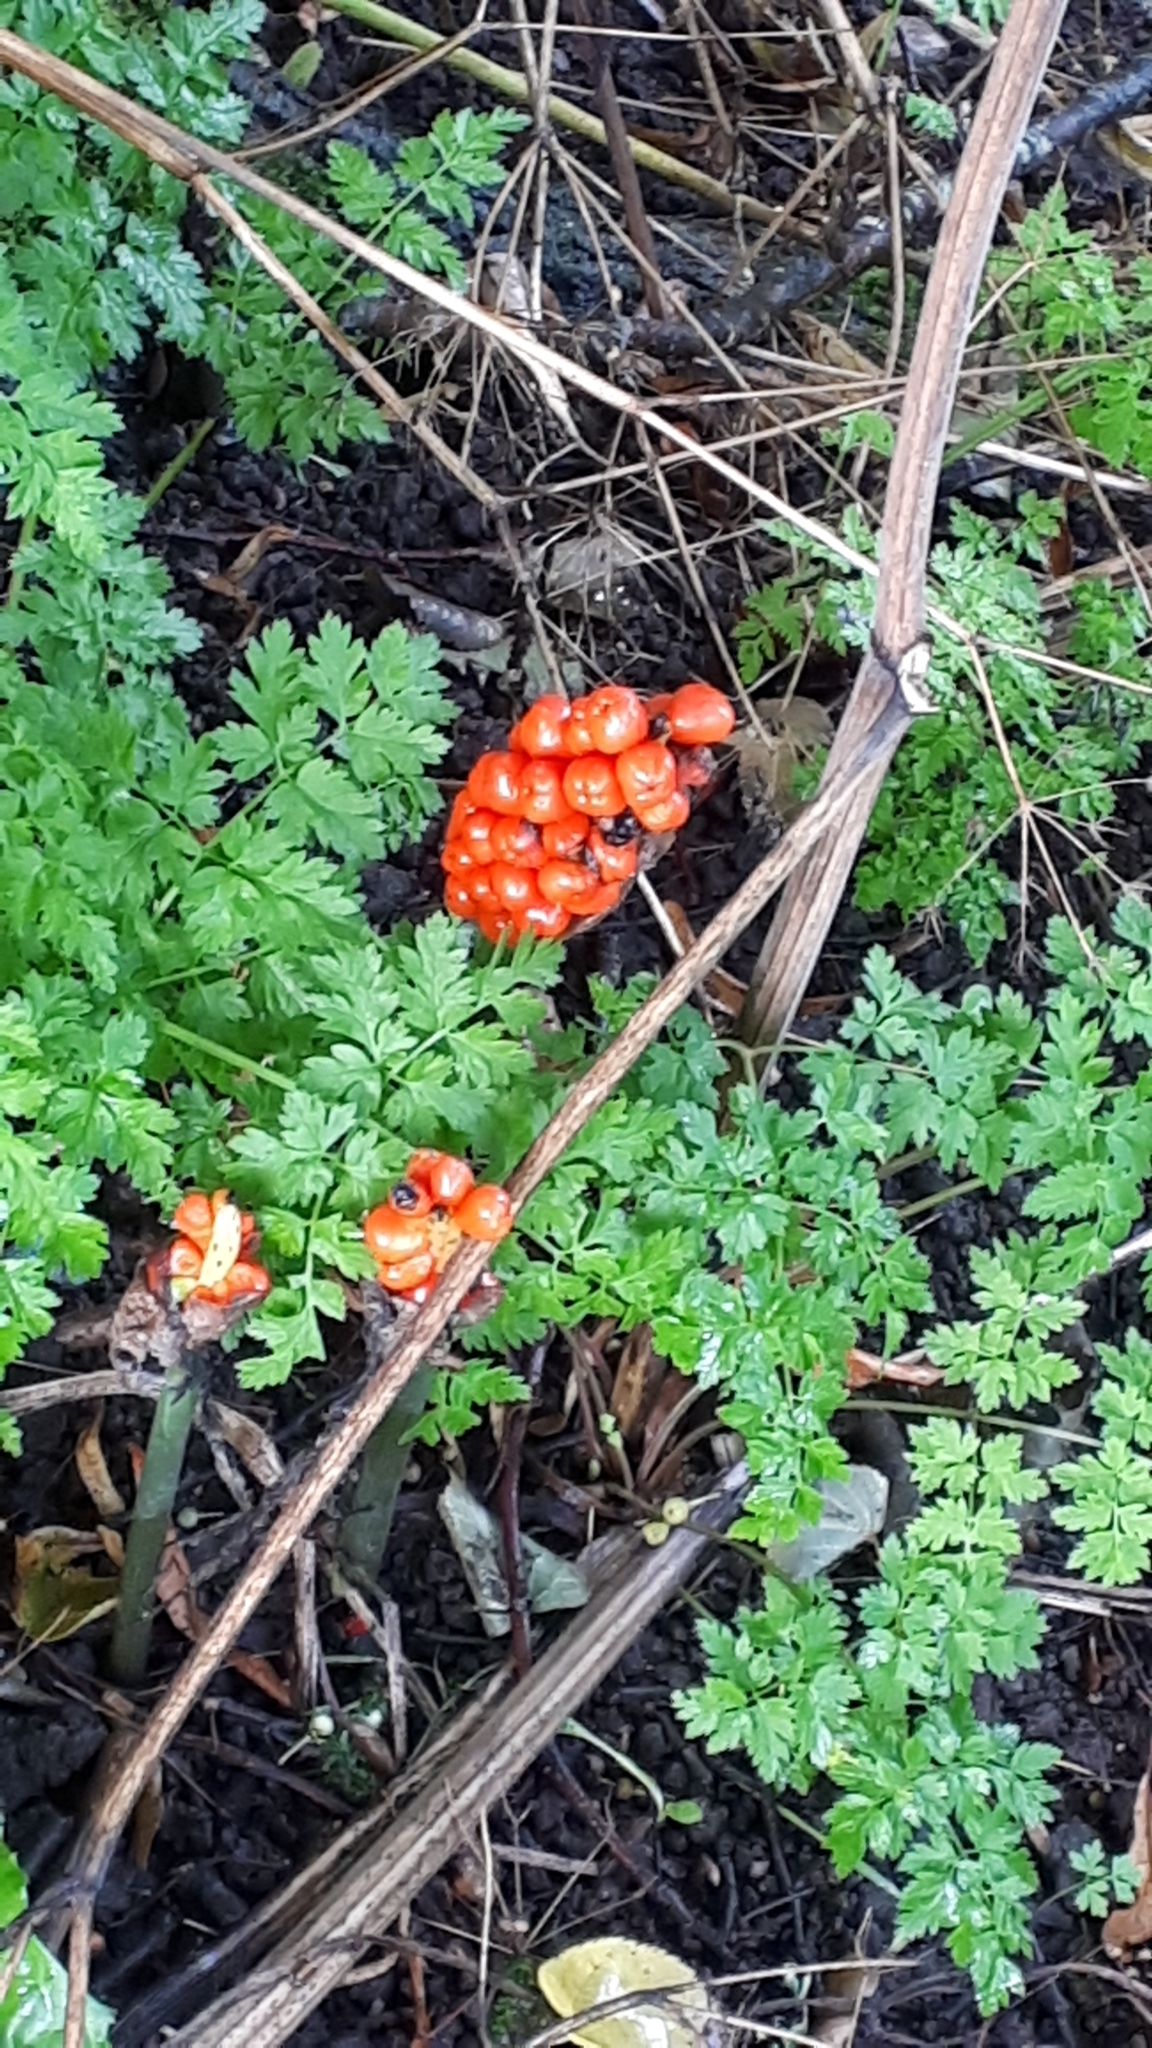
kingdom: Plantae
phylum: Tracheophyta
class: Liliopsida
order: Alismatales
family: Araceae
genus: Arum
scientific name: Arum maculatum
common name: Lords-and-ladies
